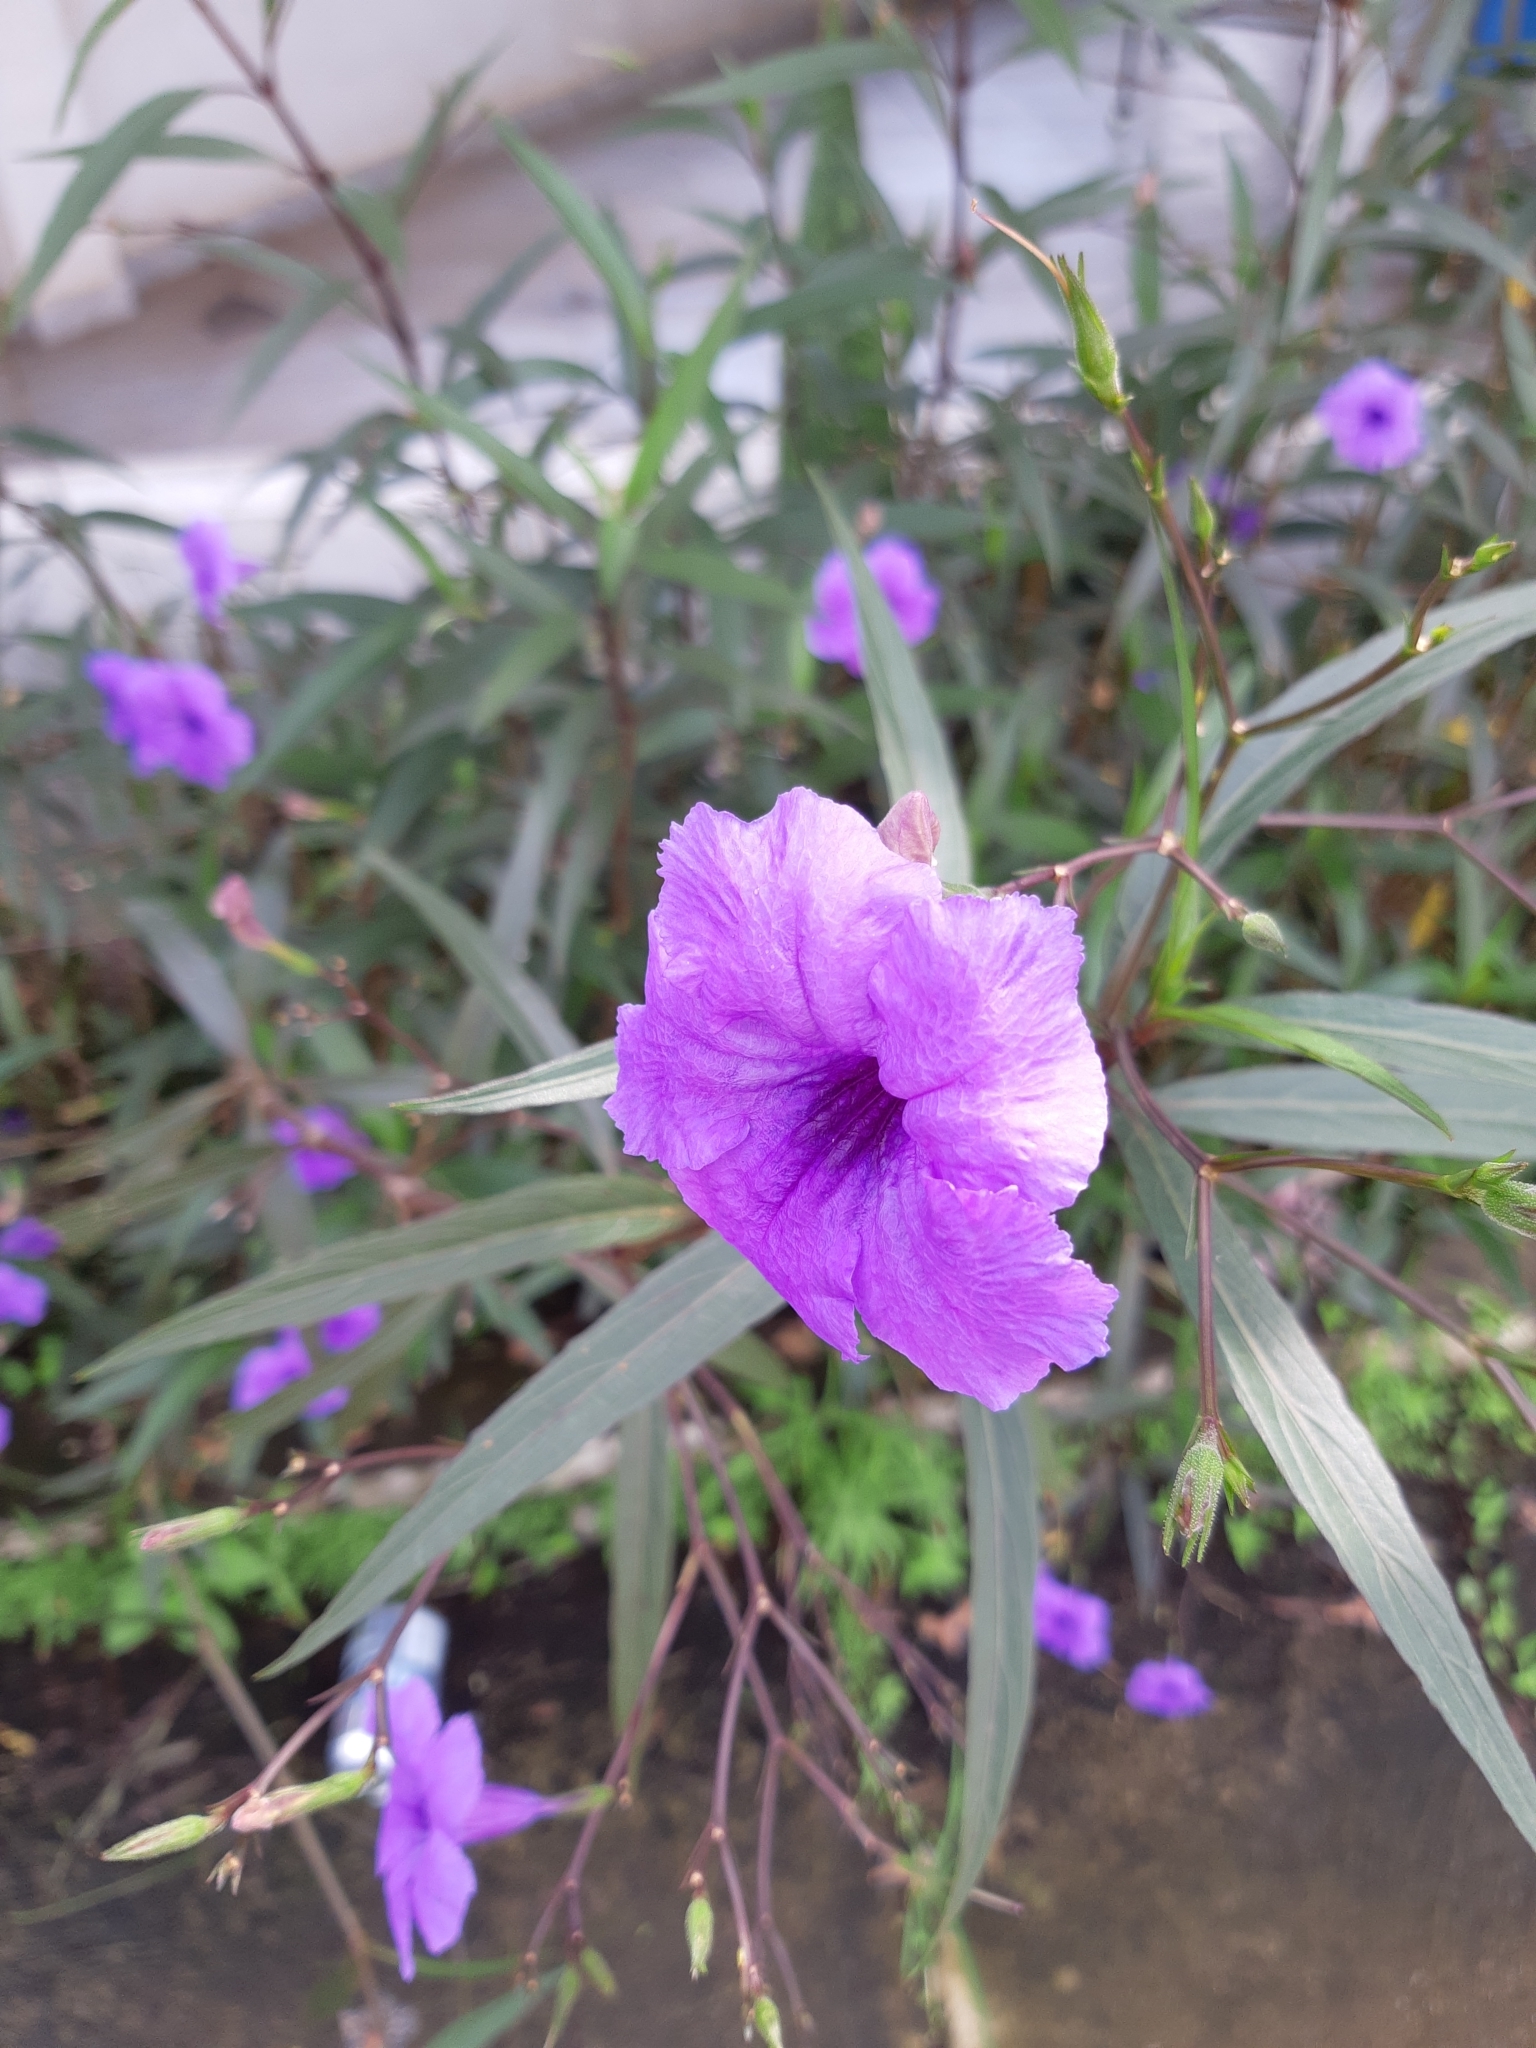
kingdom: Plantae
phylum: Tracheophyta
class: Magnoliopsida
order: Lamiales
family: Acanthaceae
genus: Ruellia
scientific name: Ruellia simplex
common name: Softseed wild petunia
